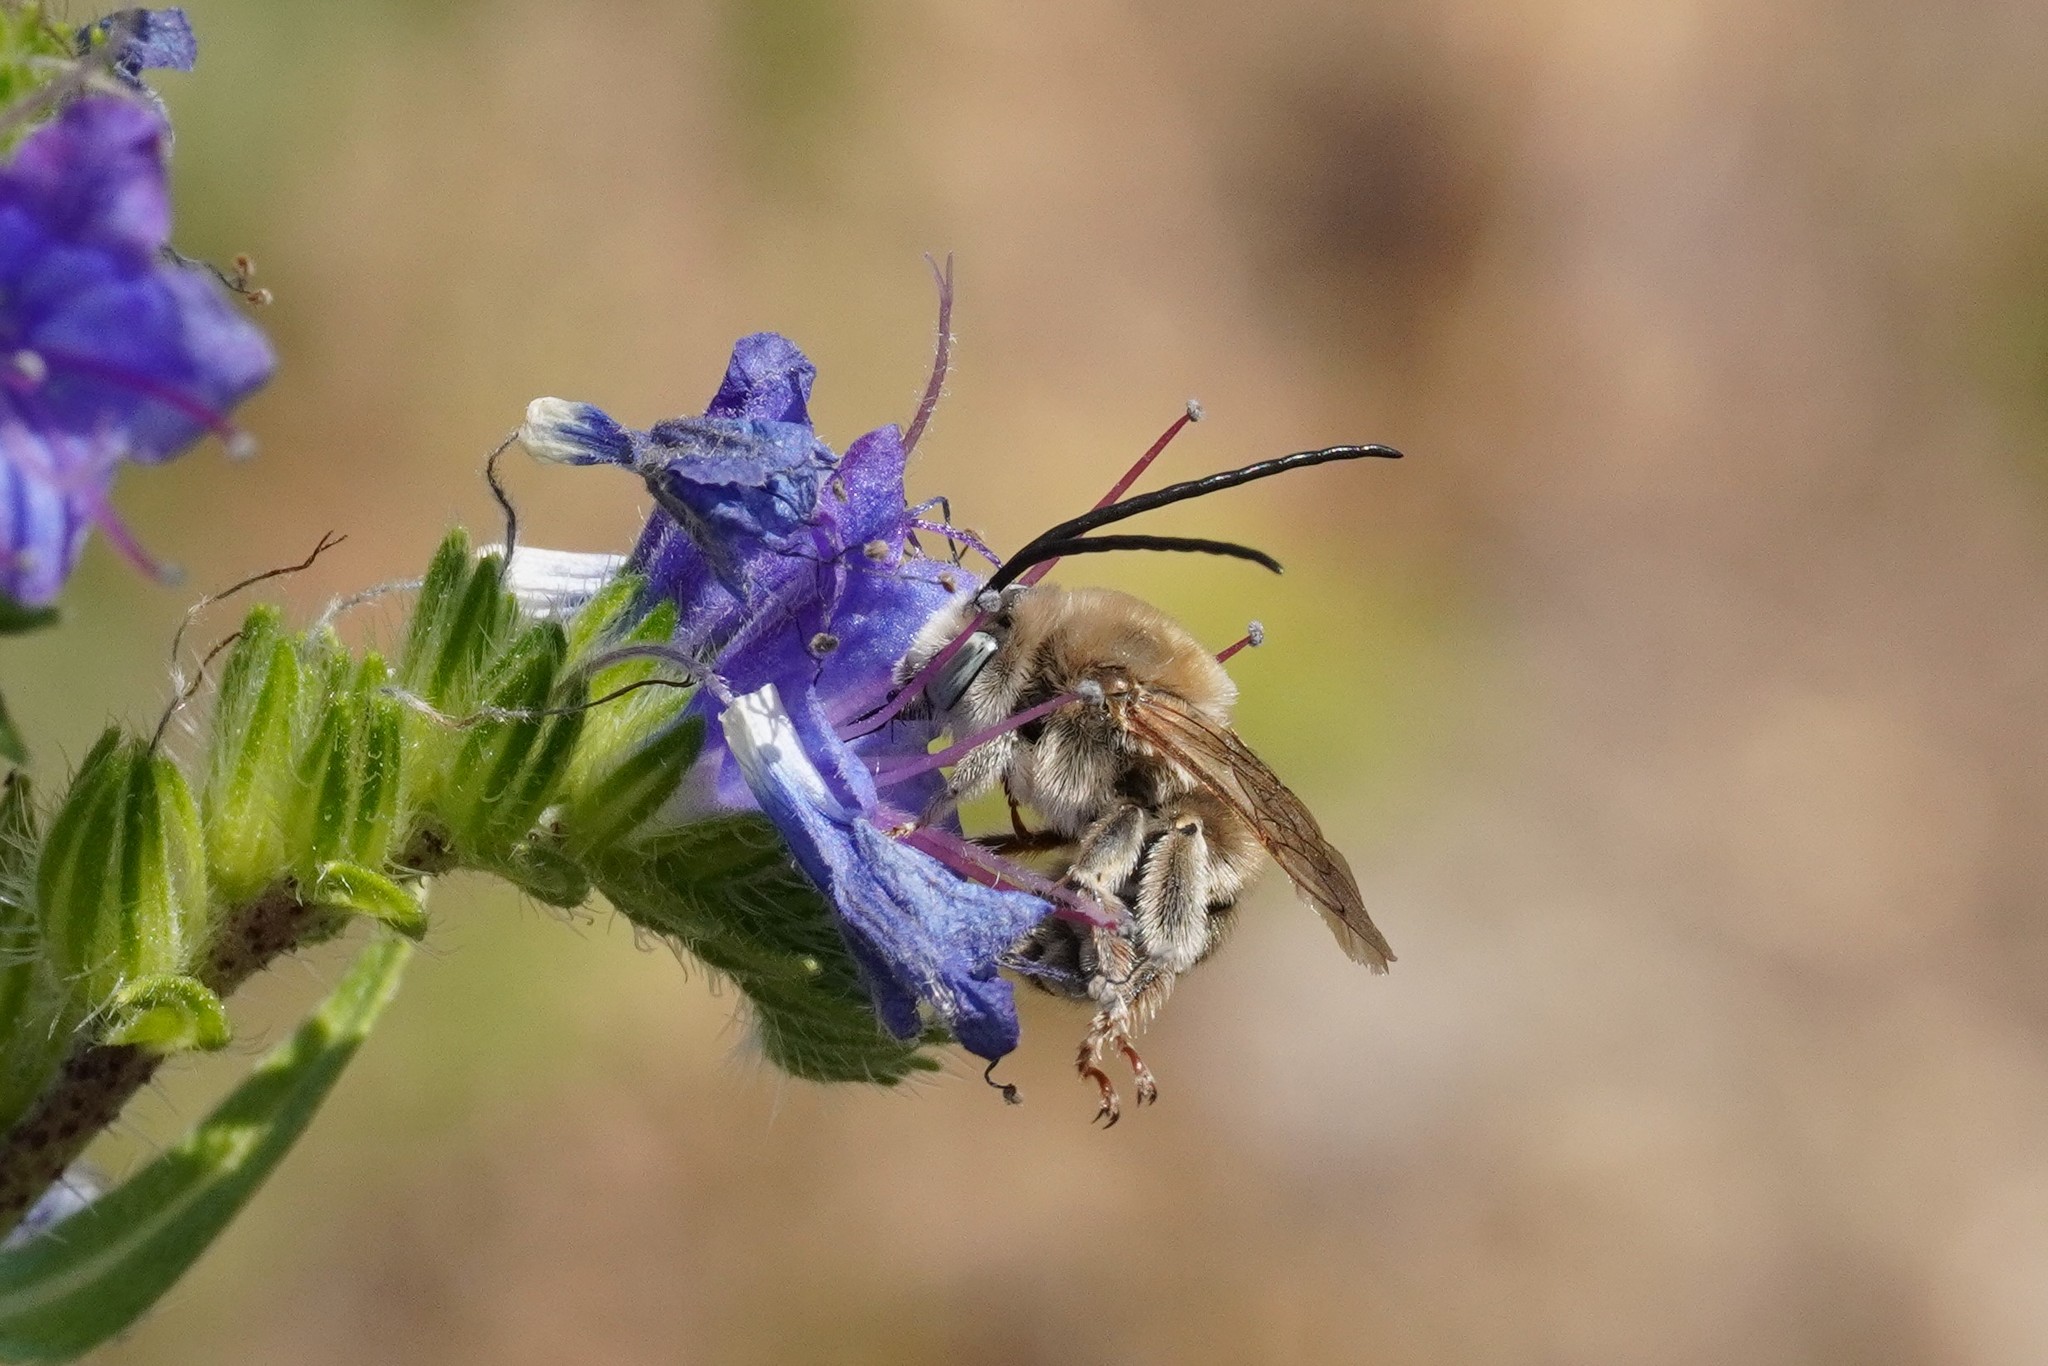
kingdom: Animalia
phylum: Arthropoda
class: Insecta
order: Hymenoptera
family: Apidae
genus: Tetraloniella
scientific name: Tetraloniella dentata
